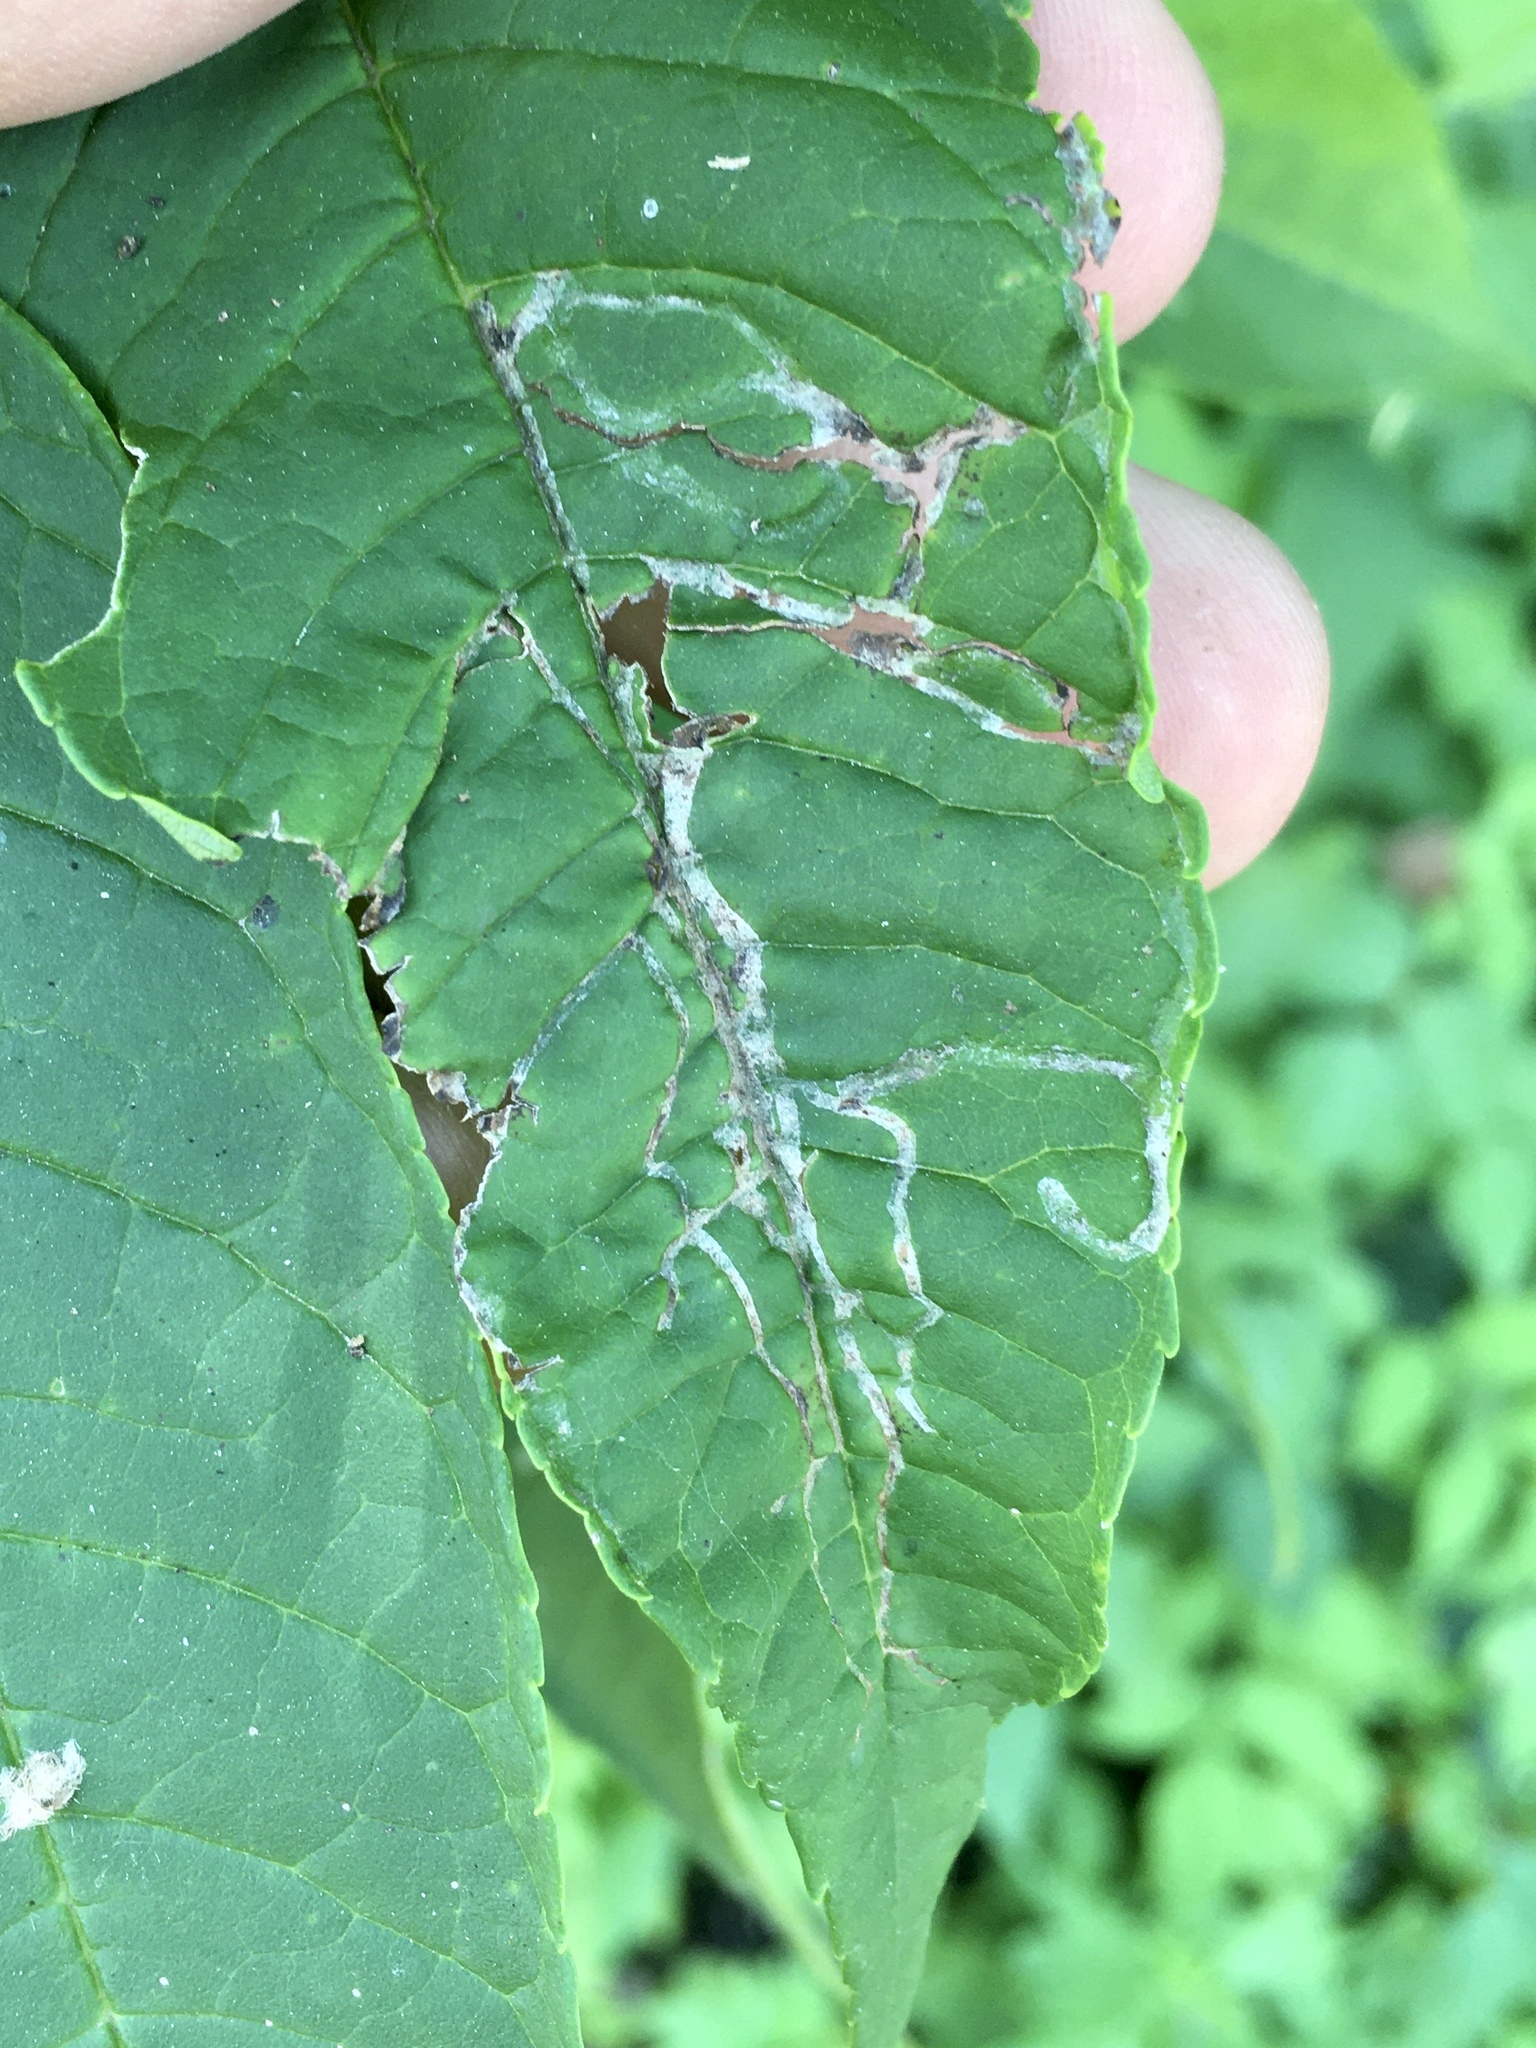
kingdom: Animalia
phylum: Arthropoda
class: Insecta
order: Lepidoptera
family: Gracillariidae
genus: Caloptilia
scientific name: Caloptilia fraxinella
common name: Ash leaf cone roller
